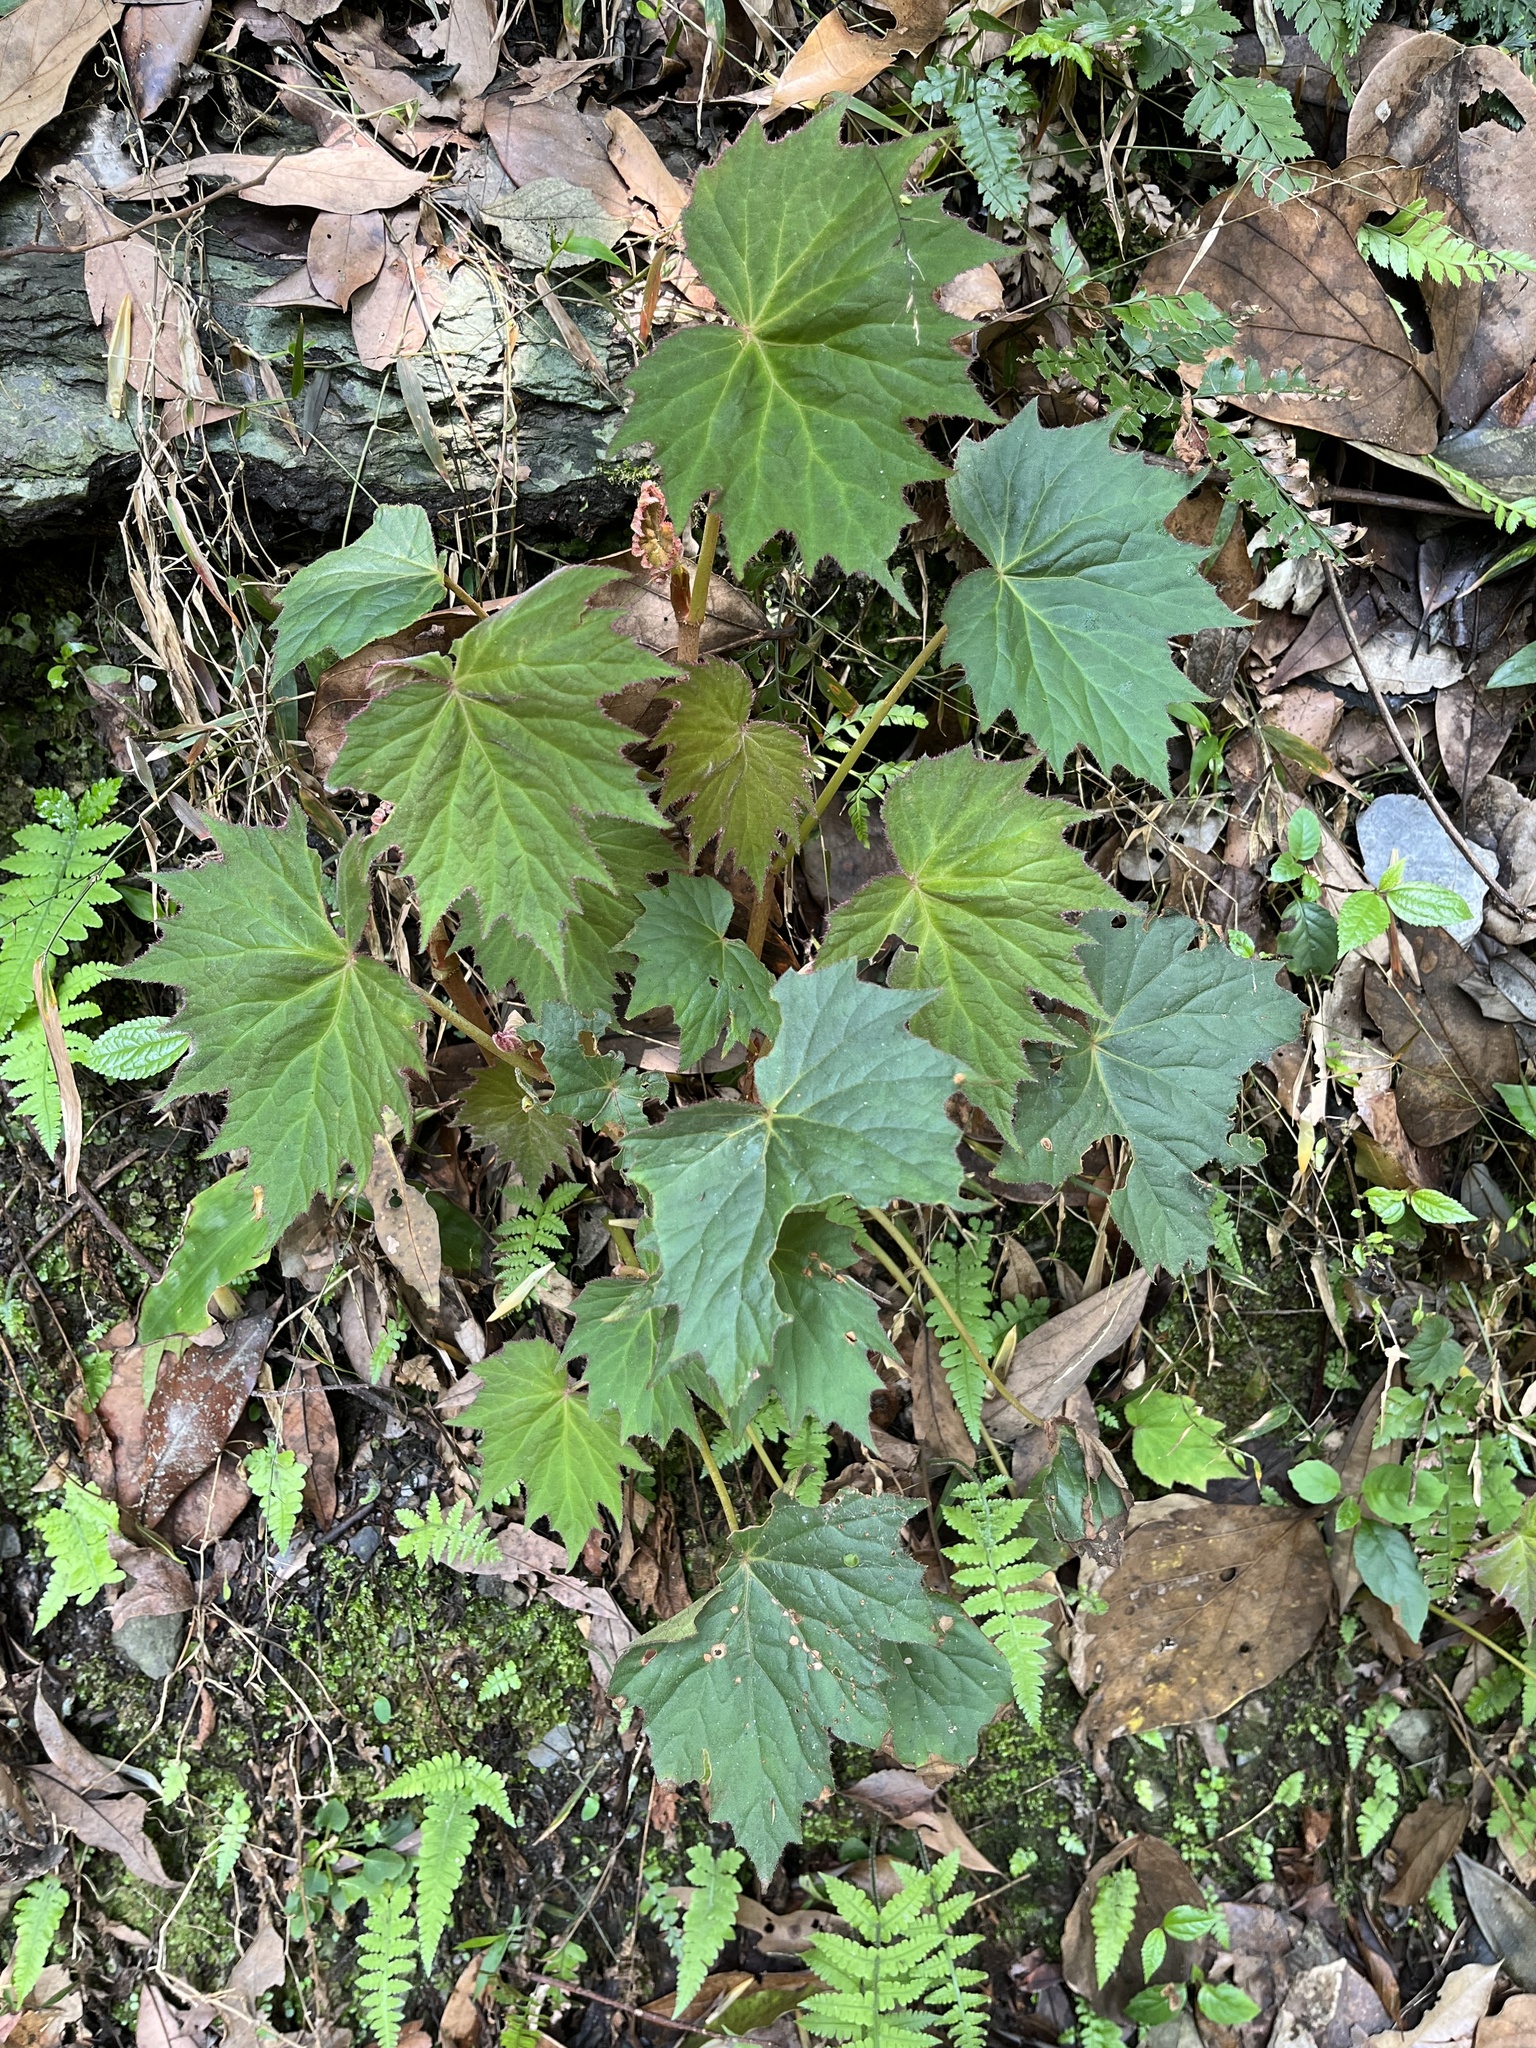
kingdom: Plantae
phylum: Tracheophyta
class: Magnoliopsida
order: Cucurbitales
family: Begoniaceae
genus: Begonia
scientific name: Begonia palmata
